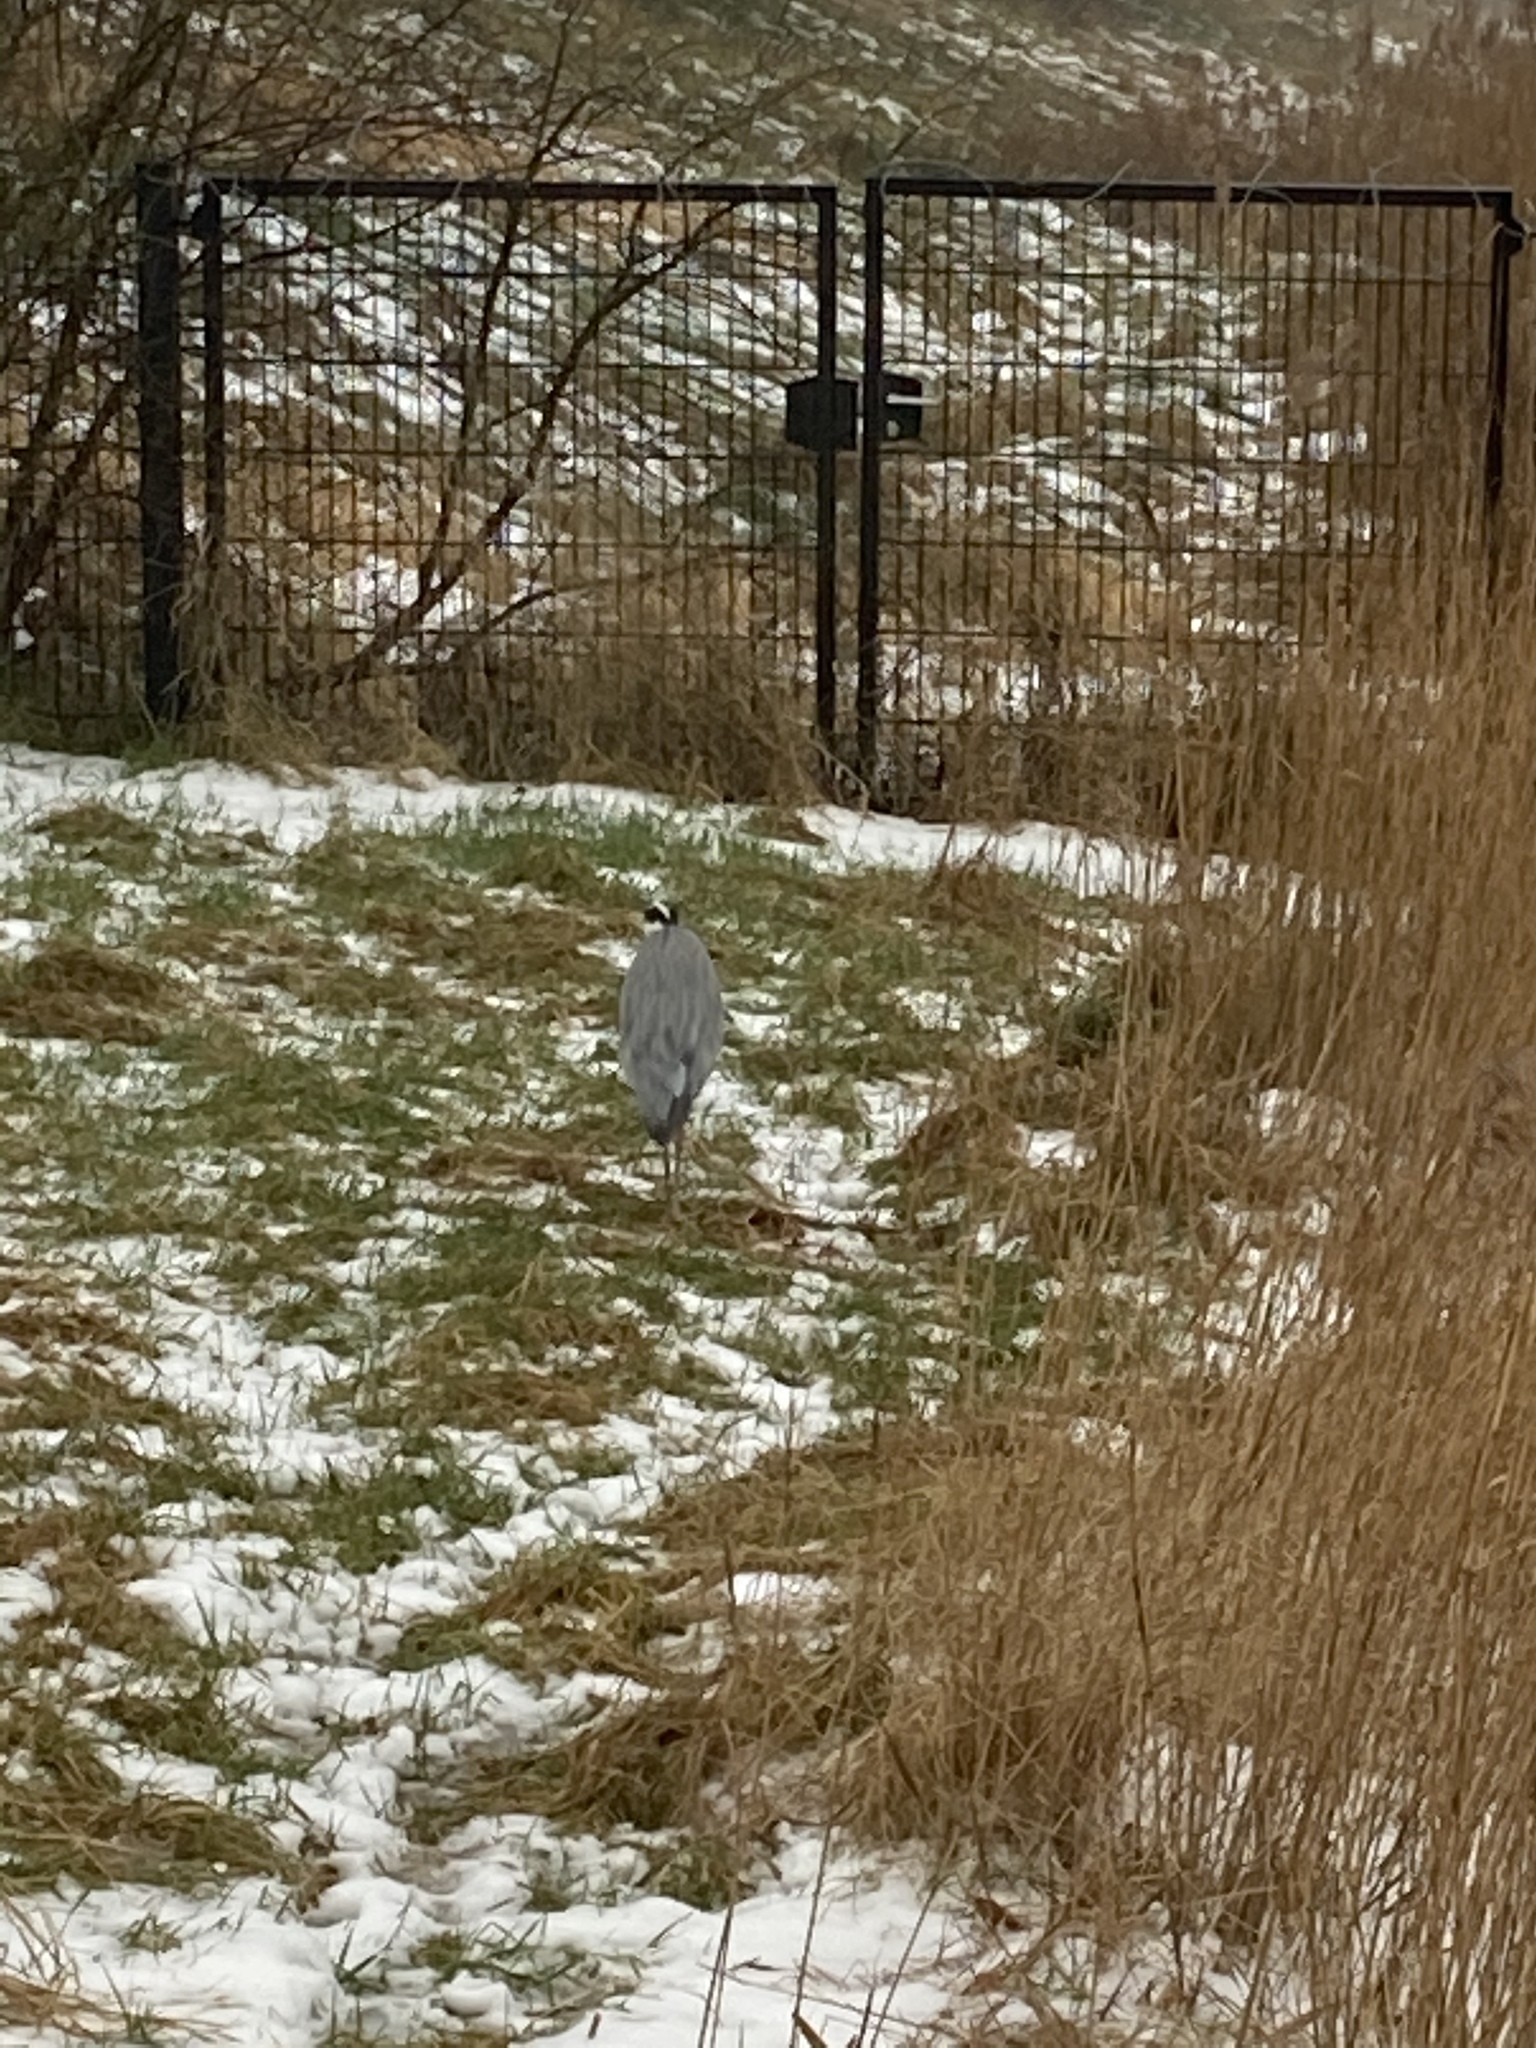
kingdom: Animalia
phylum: Chordata
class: Aves
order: Pelecaniformes
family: Ardeidae
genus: Ardea
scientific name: Ardea cinerea
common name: Grey heron
